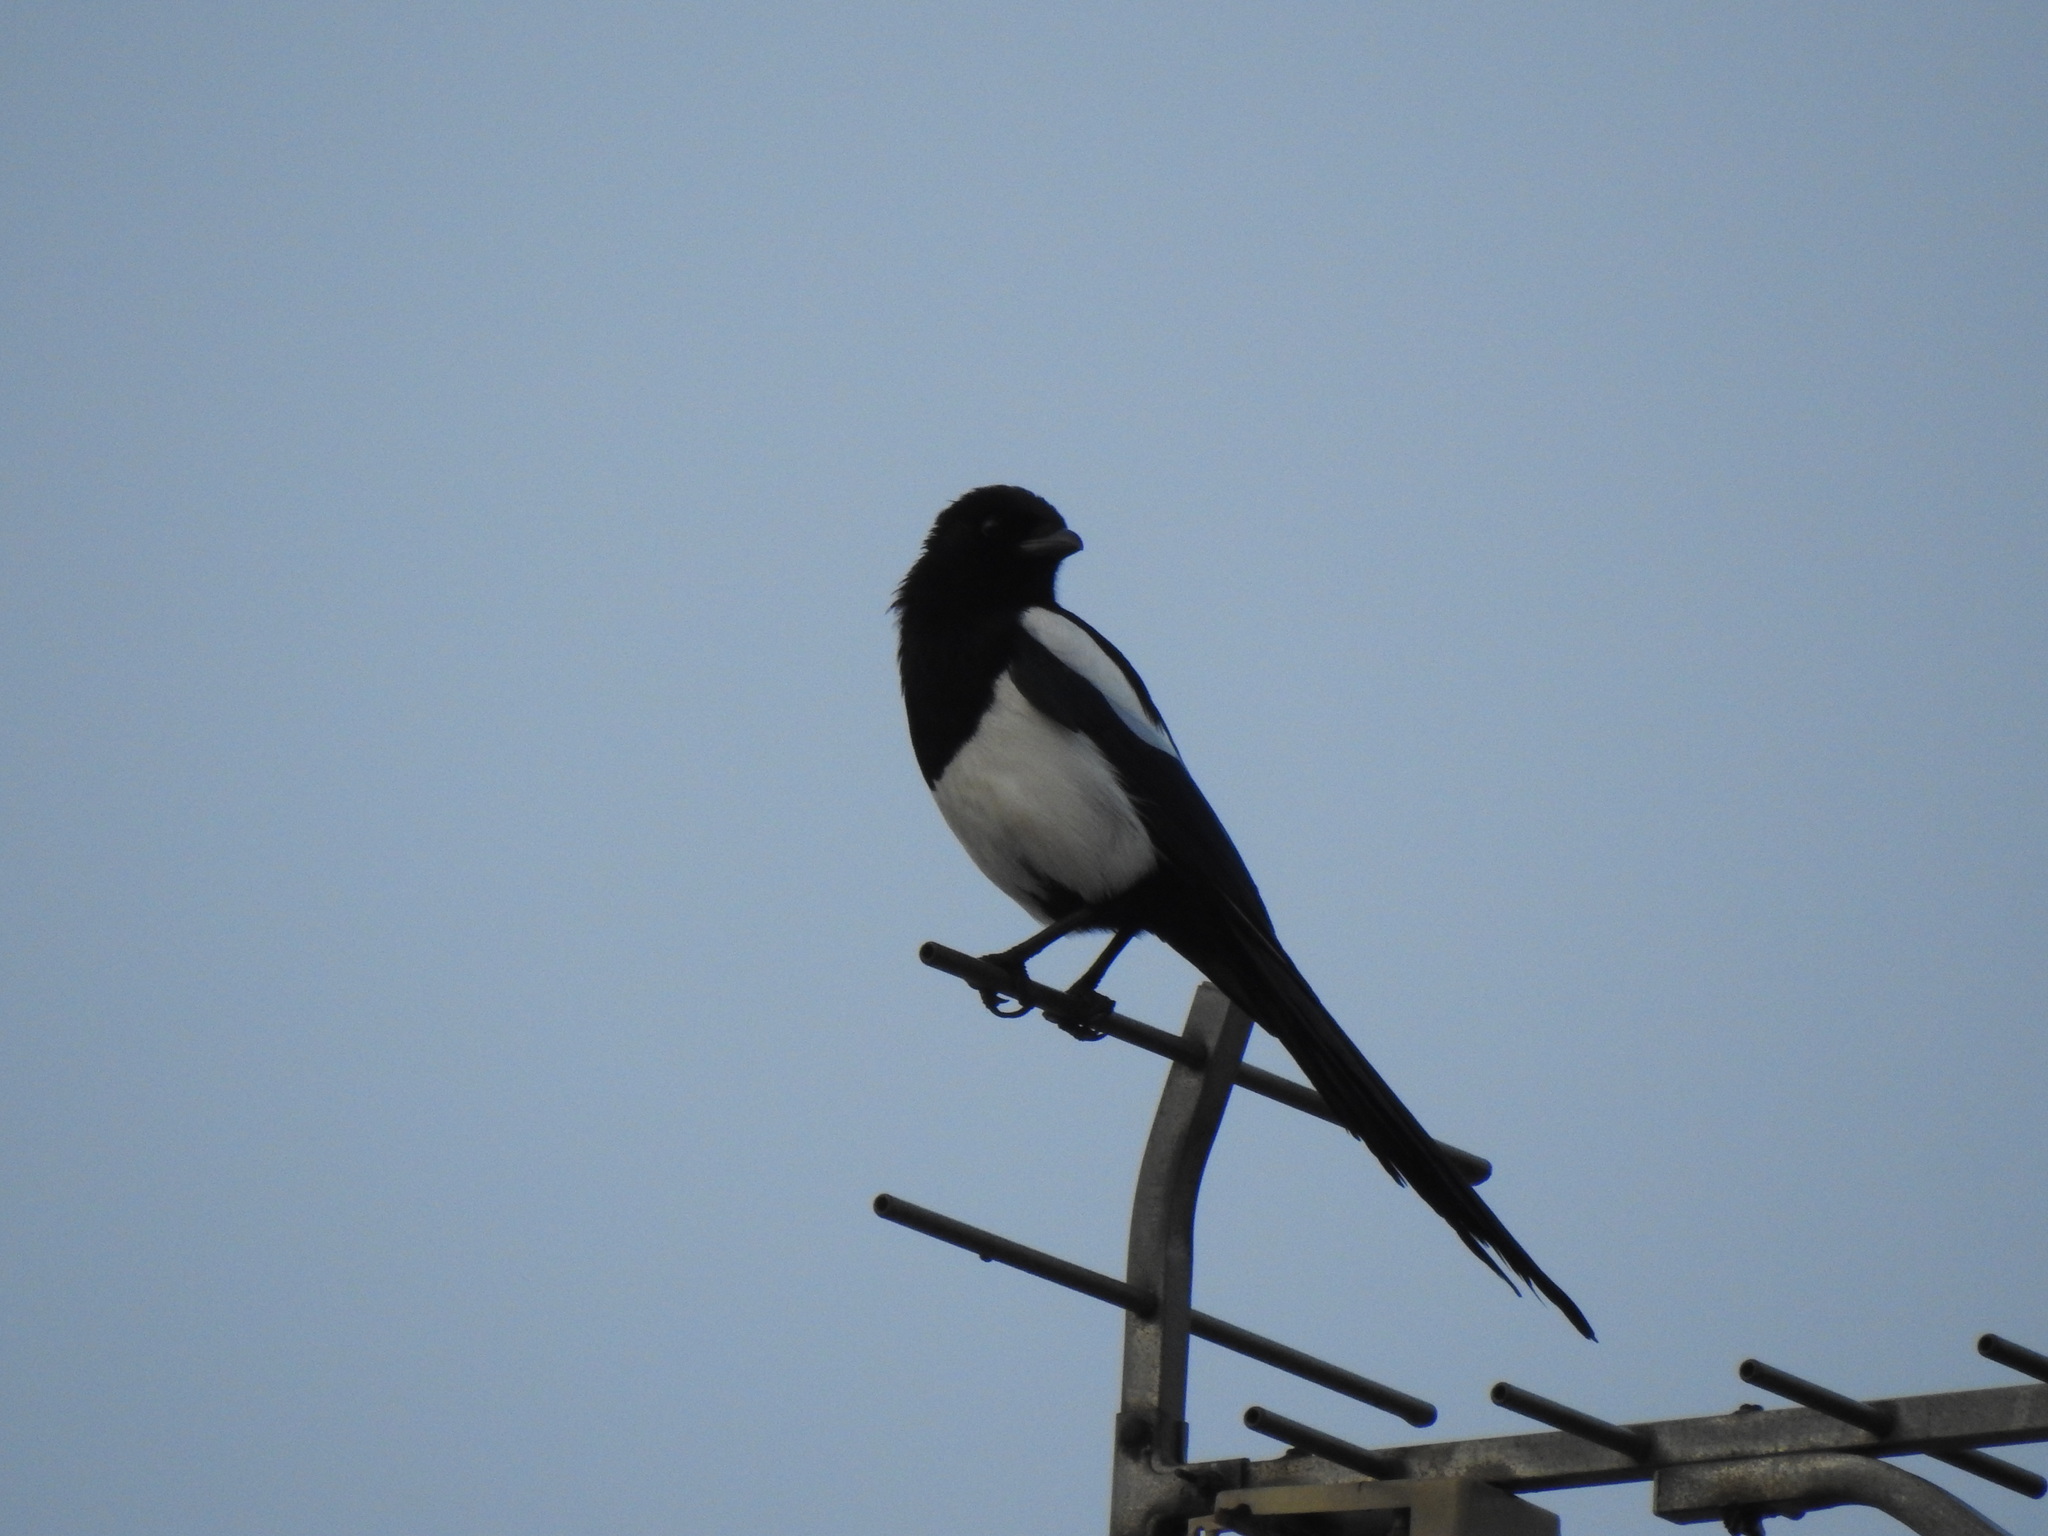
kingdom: Animalia
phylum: Chordata
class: Aves
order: Passeriformes
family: Corvidae
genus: Pica
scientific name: Pica pica
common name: Eurasian magpie
